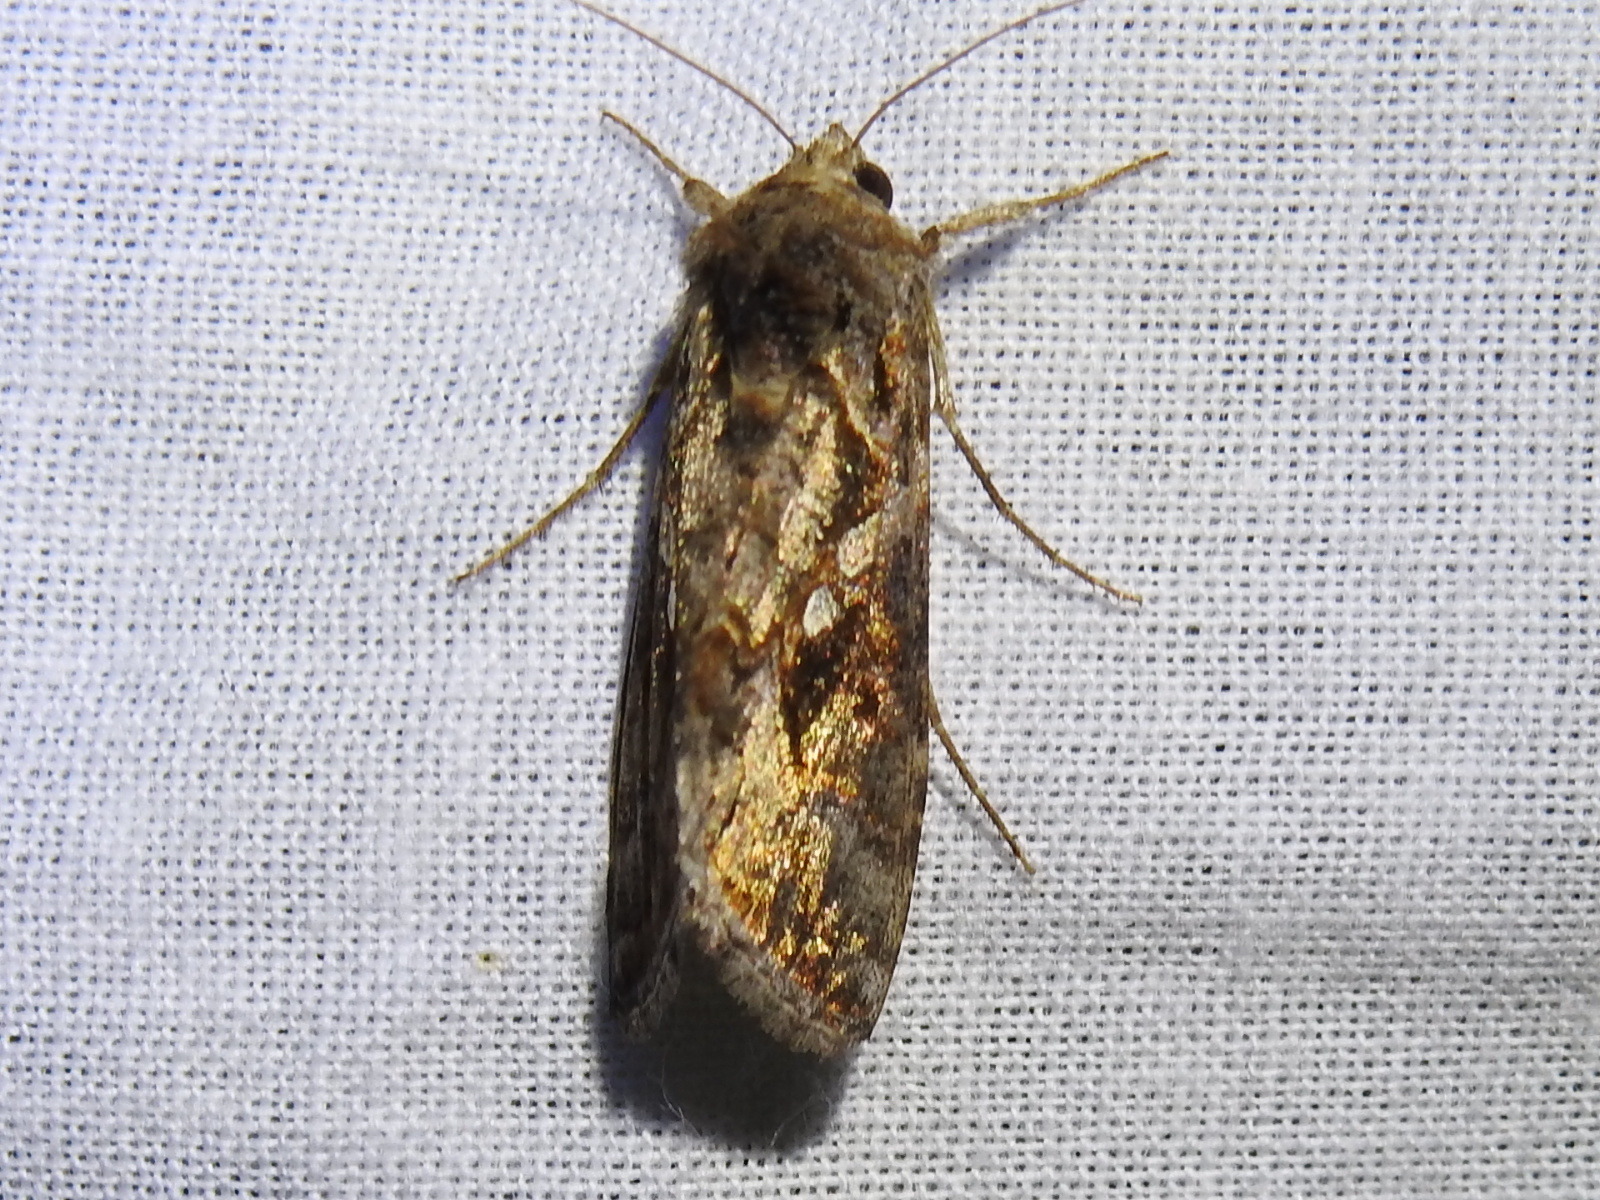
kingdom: Animalia
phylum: Arthropoda
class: Insecta
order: Lepidoptera
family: Noctuidae
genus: Chrysodeixis
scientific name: Chrysodeixis includens
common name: Cutworm moth
